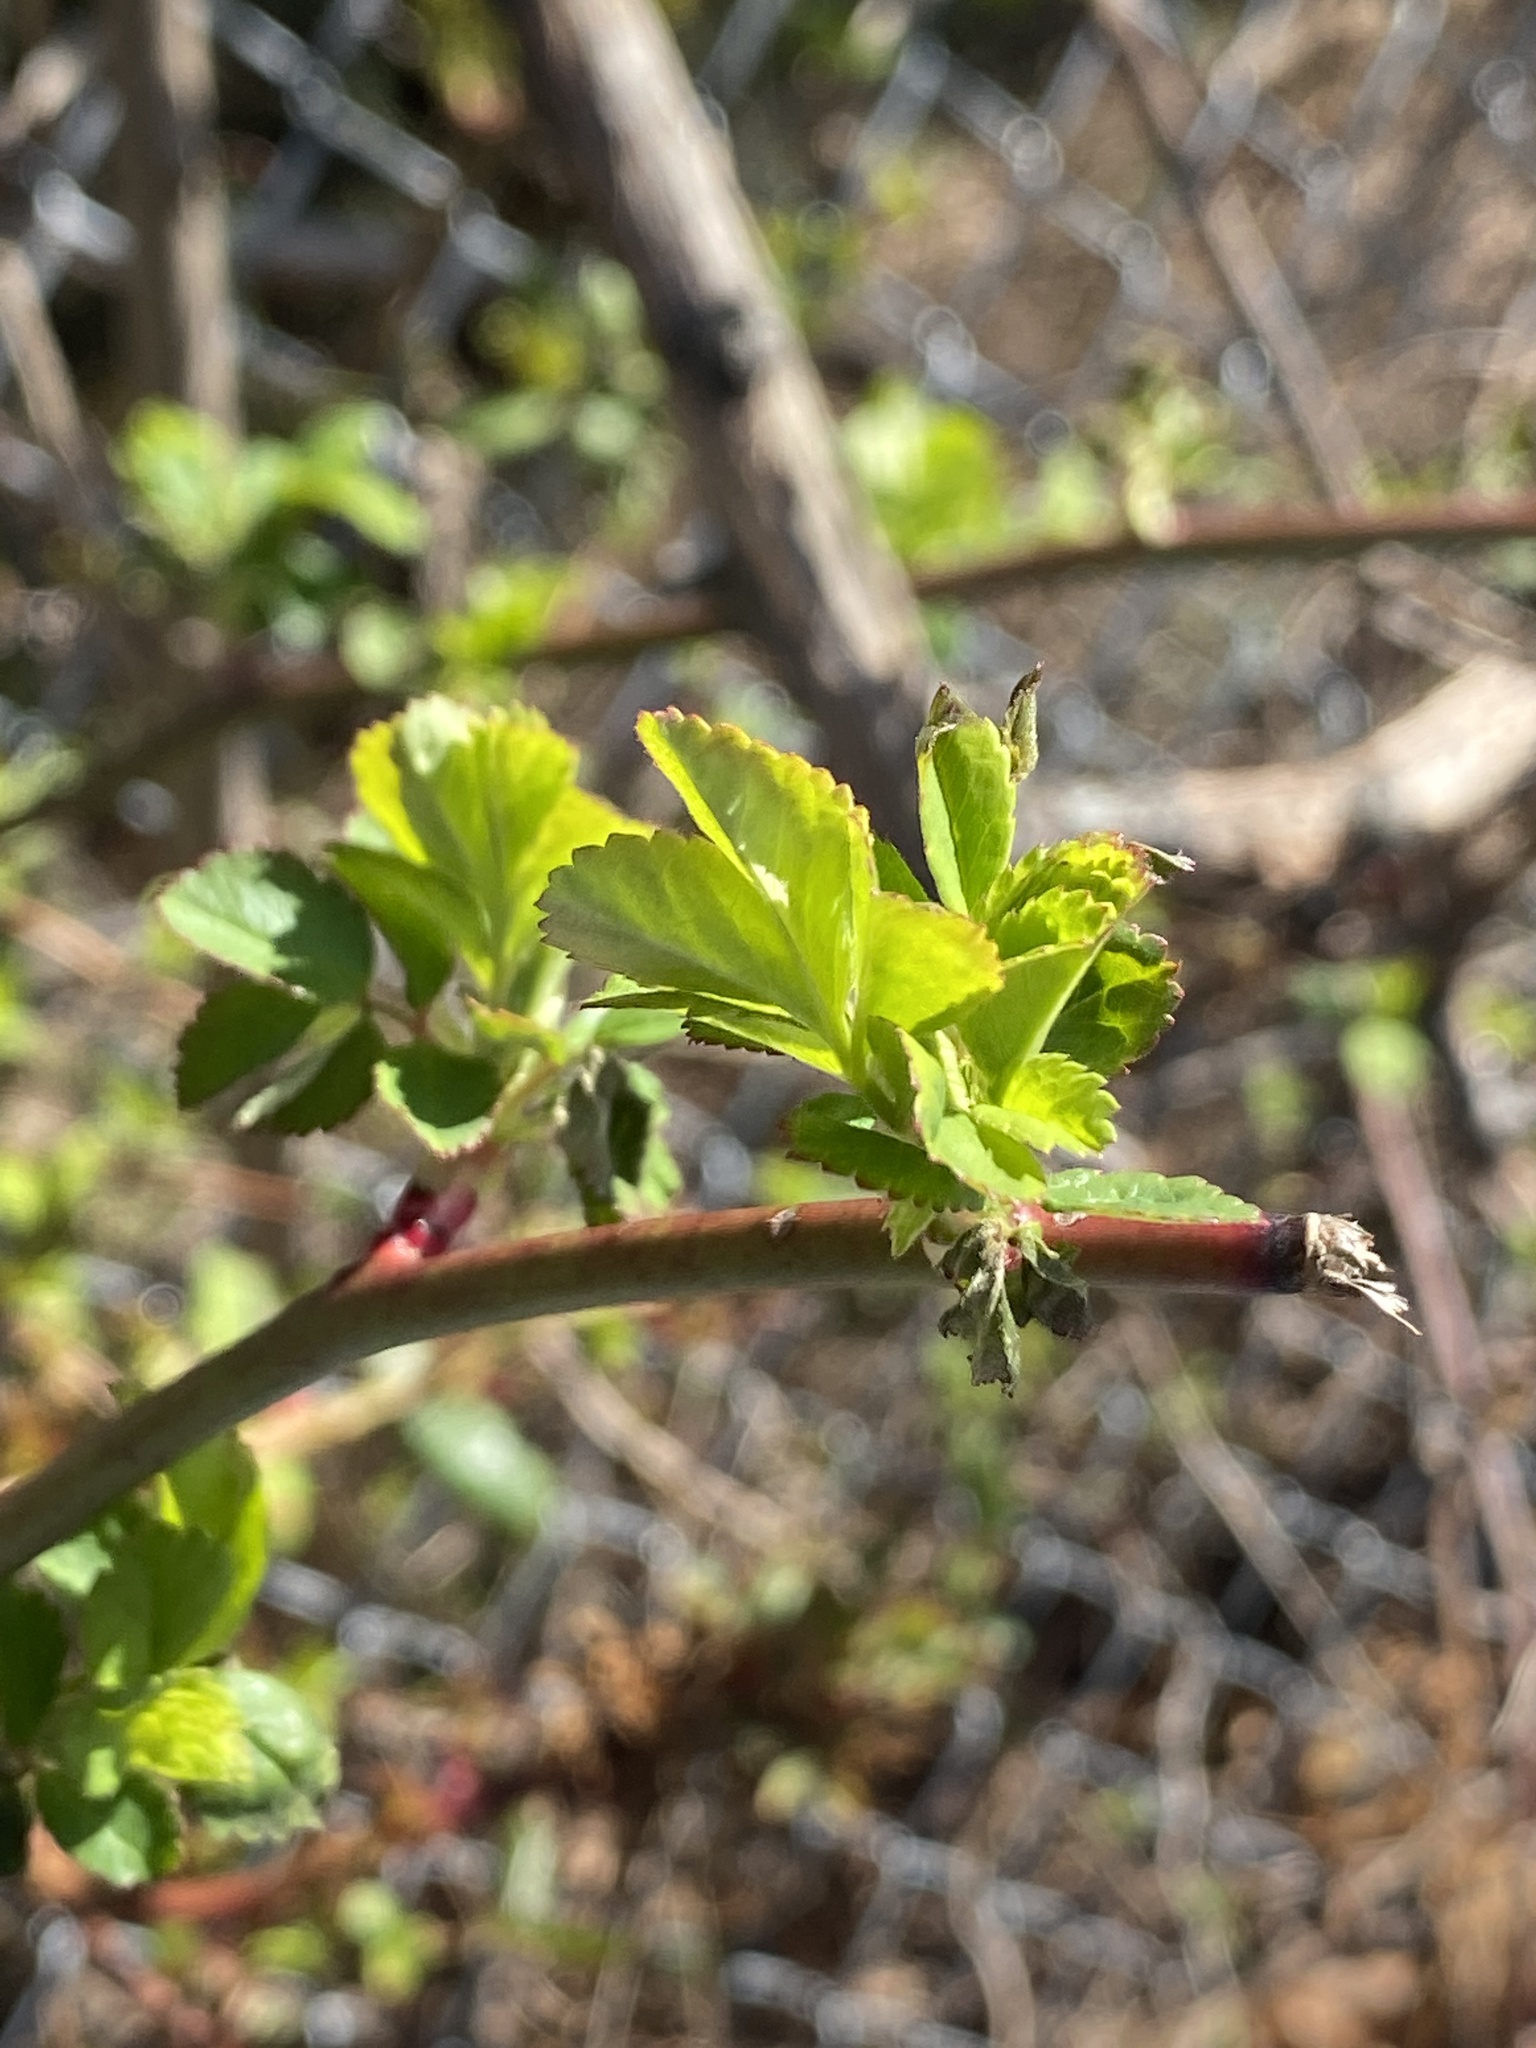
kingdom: Plantae
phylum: Tracheophyta
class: Magnoliopsida
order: Rosales
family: Rosaceae
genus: Rosa
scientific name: Rosa multiflora
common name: Multiflora rose
